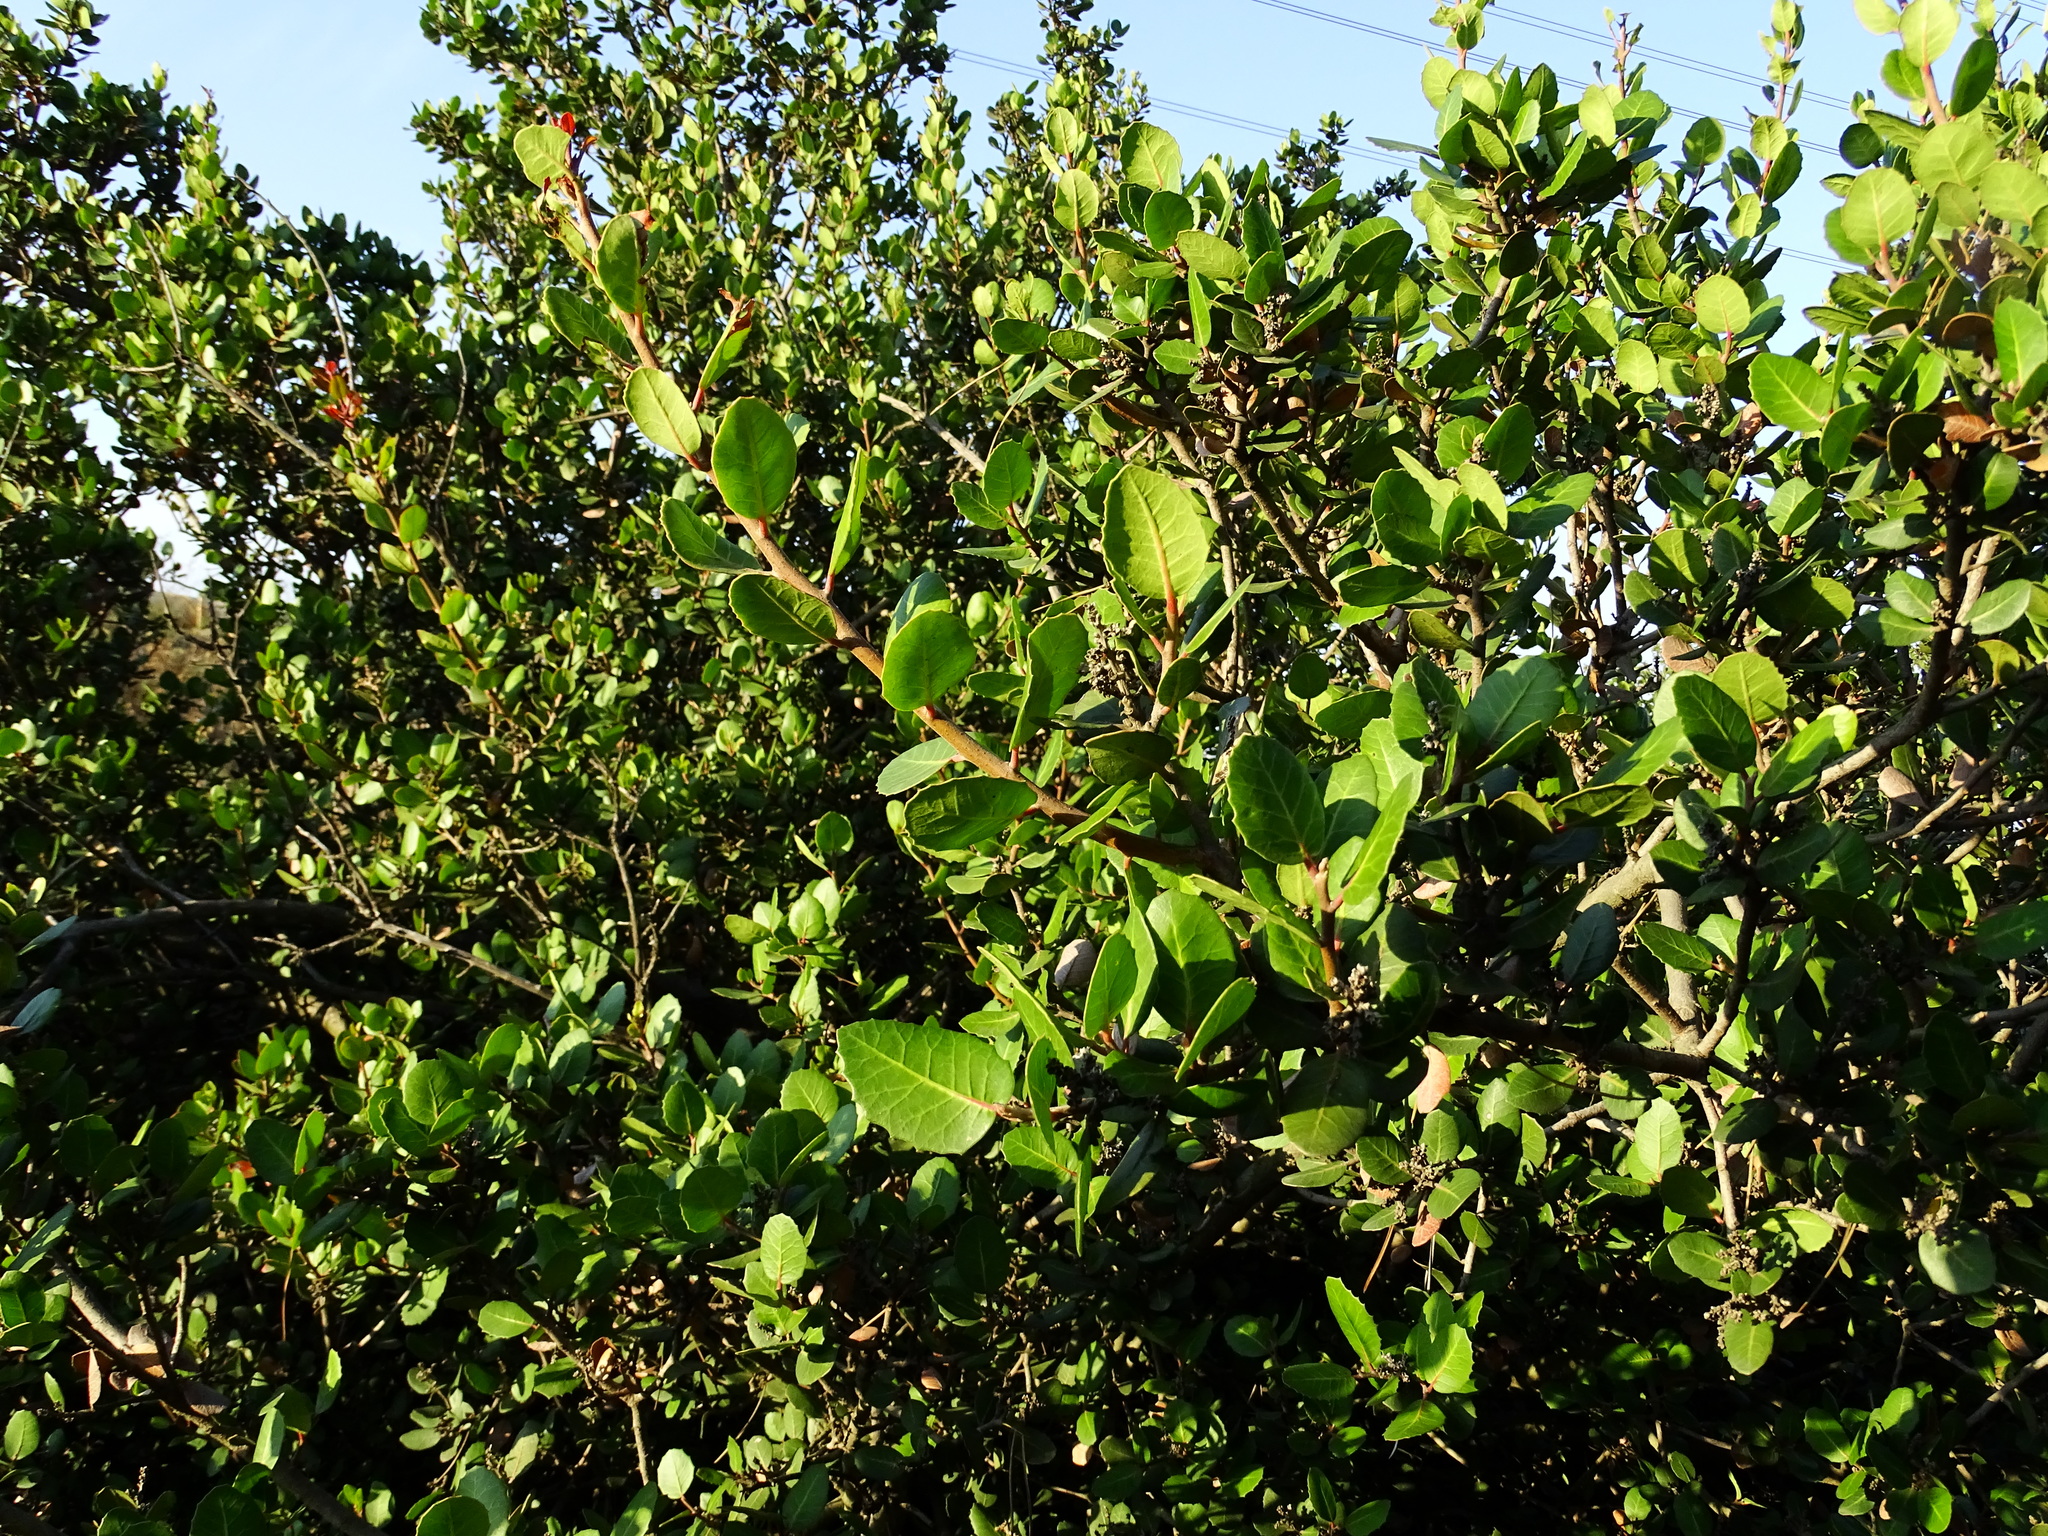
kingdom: Plantae
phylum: Tracheophyta
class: Magnoliopsida
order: Sapindales
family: Anacardiaceae
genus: Rhus
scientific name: Rhus integrifolia
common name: Lemonade sumac
